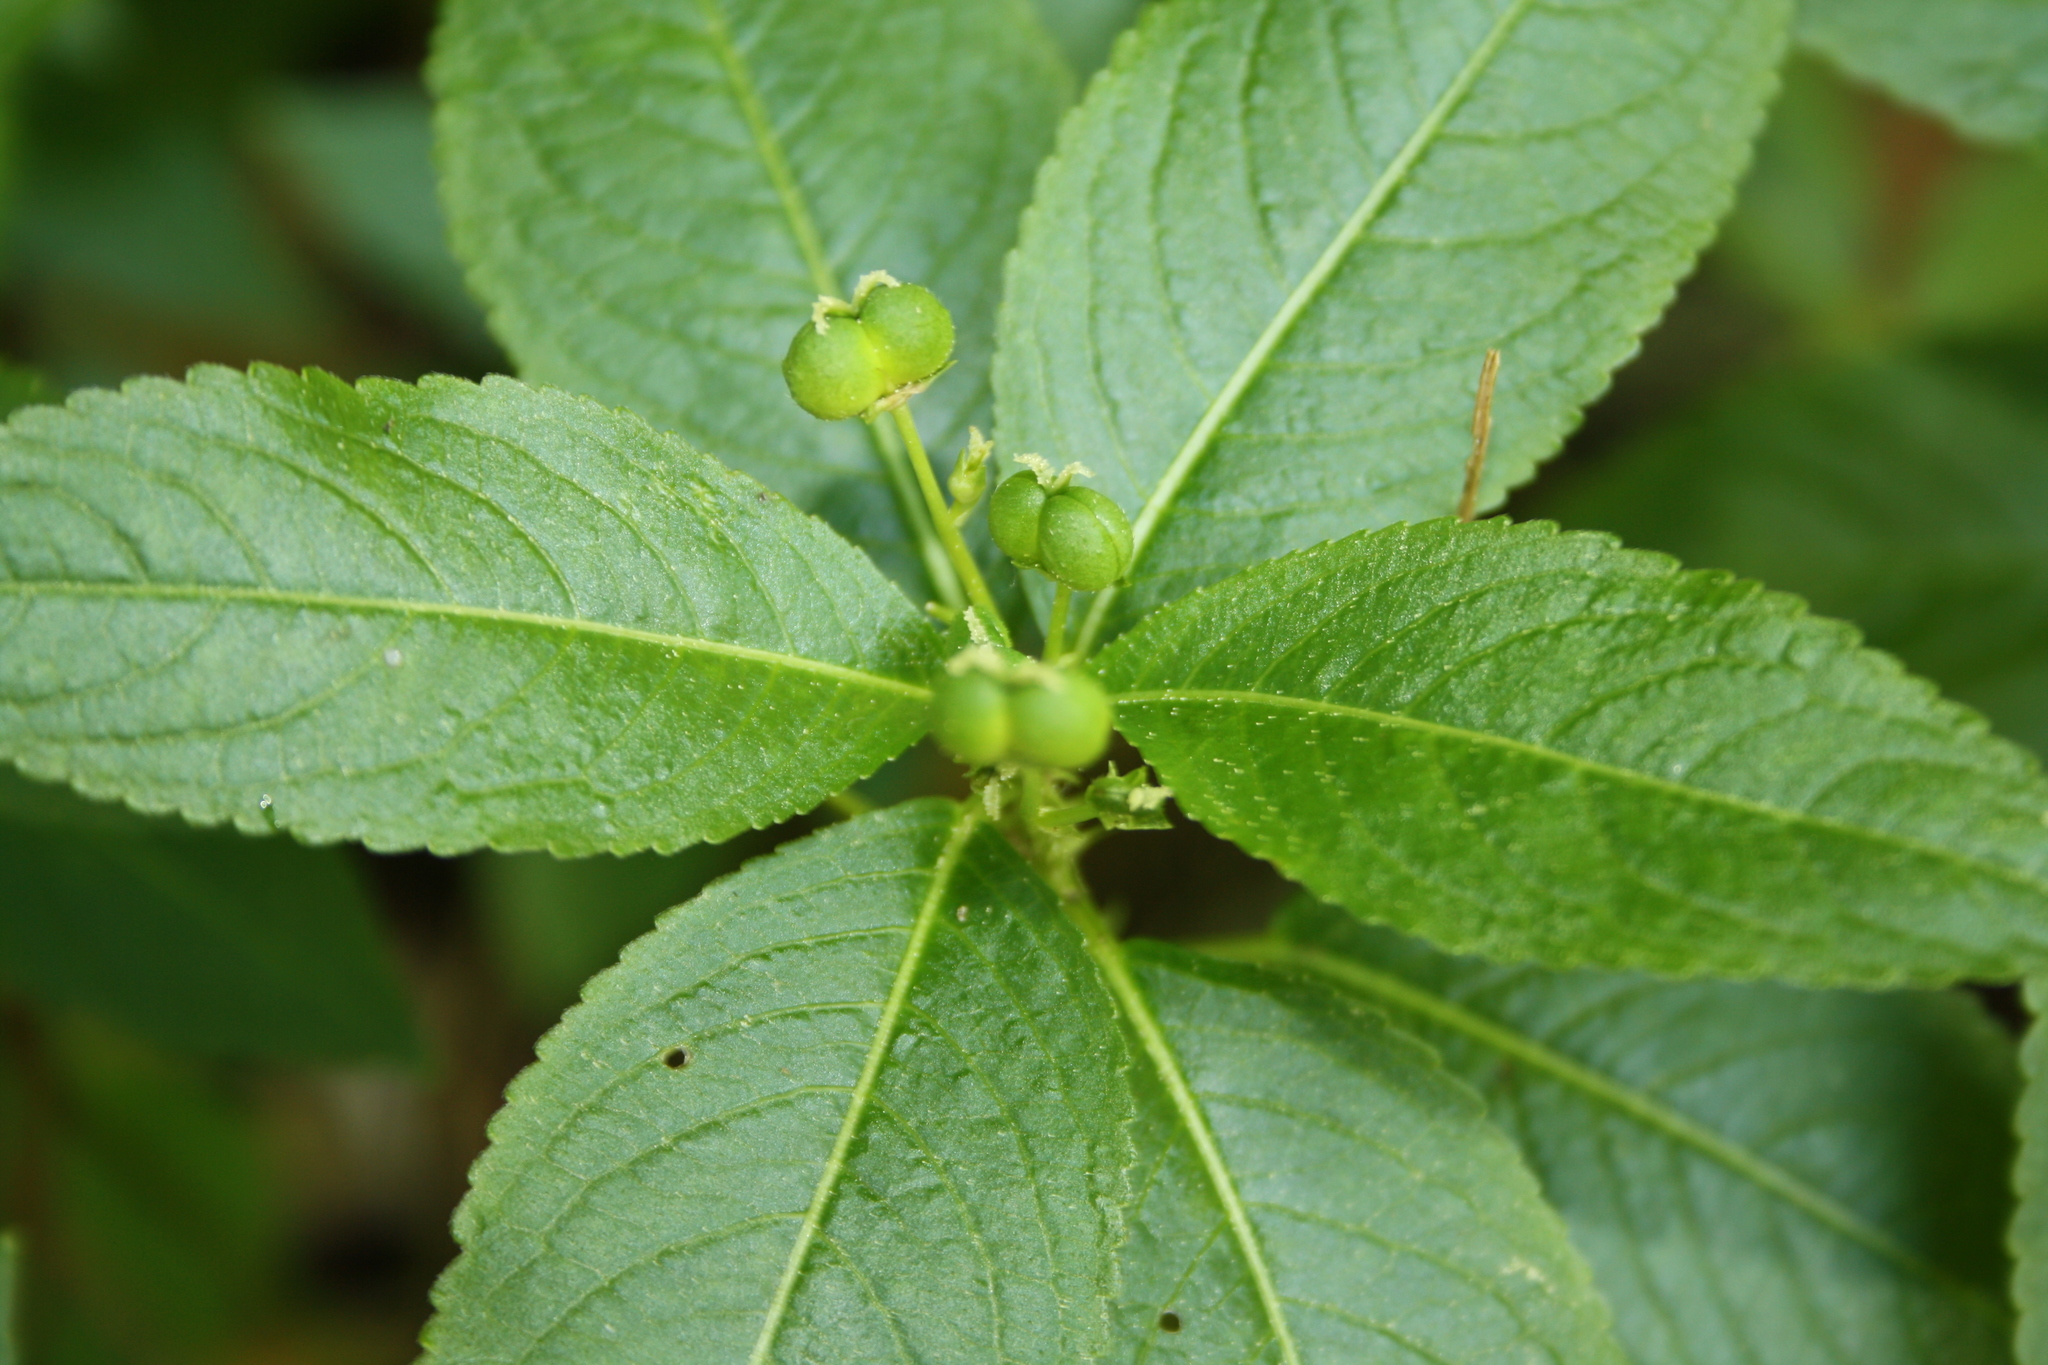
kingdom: Plantae
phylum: Tracheophyta
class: Magnoliopsida
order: Malpighiales
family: Euphorbiaceae
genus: Mercurialis
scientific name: Mercurialis perennis
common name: Dog mercury
